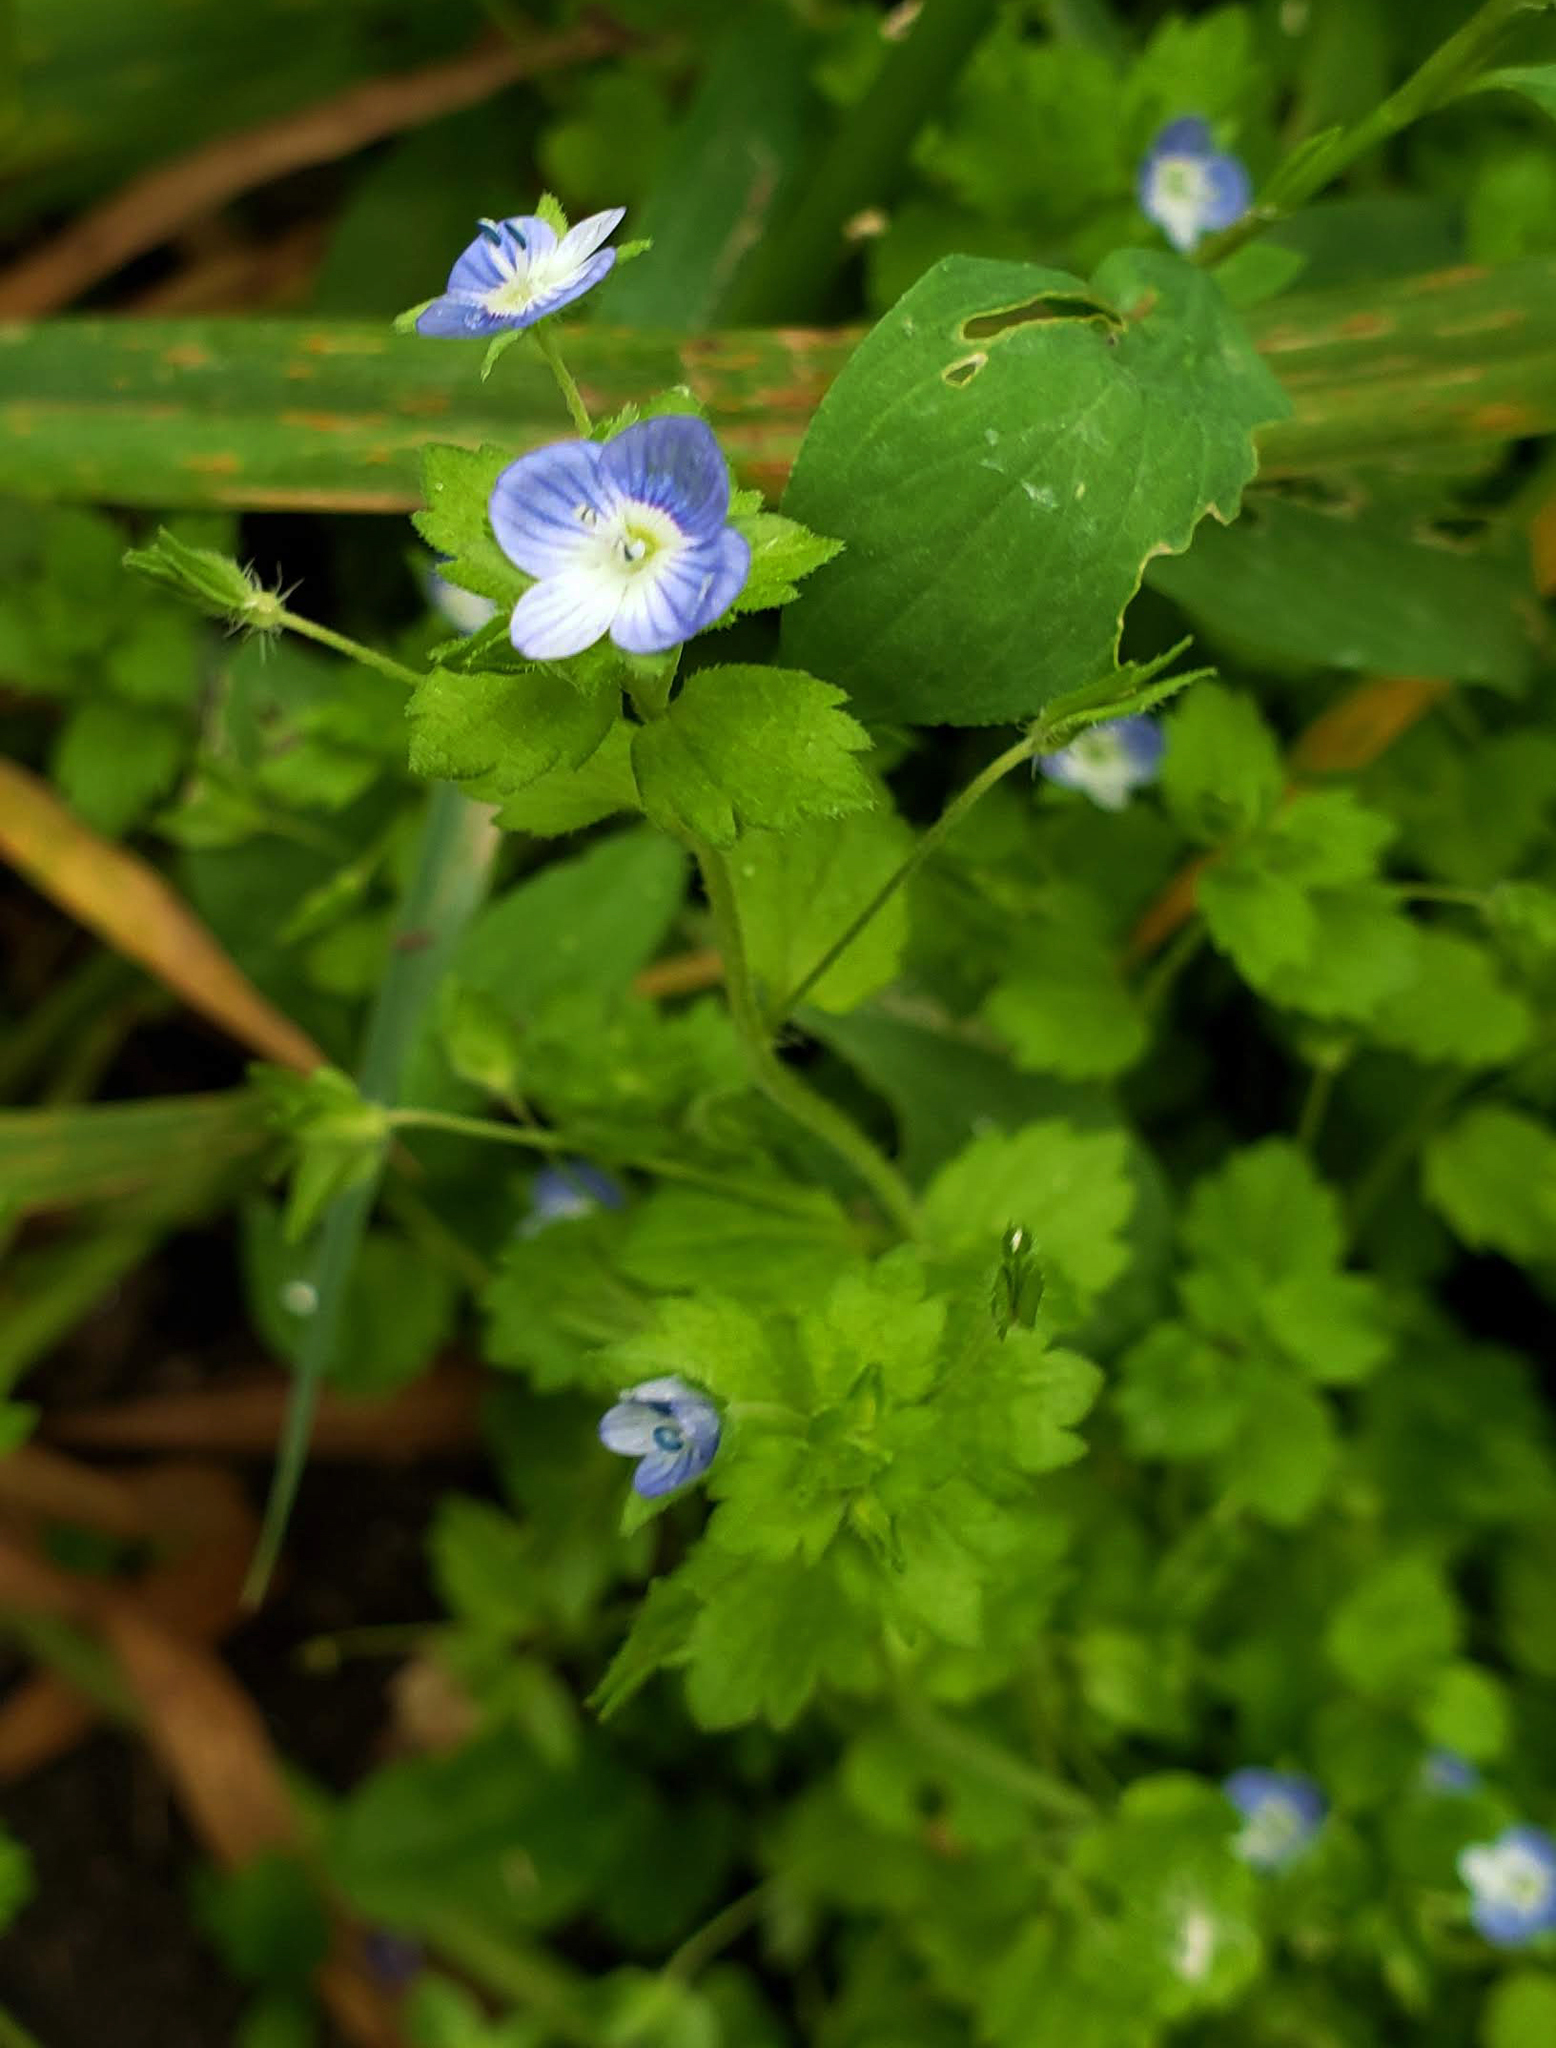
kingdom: Plantae
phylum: Tracheophyta
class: Magnoliopsida
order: Lamiales
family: Plantaginaceae
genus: Veronica
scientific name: Veronica persica
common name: Common field-speedwell
